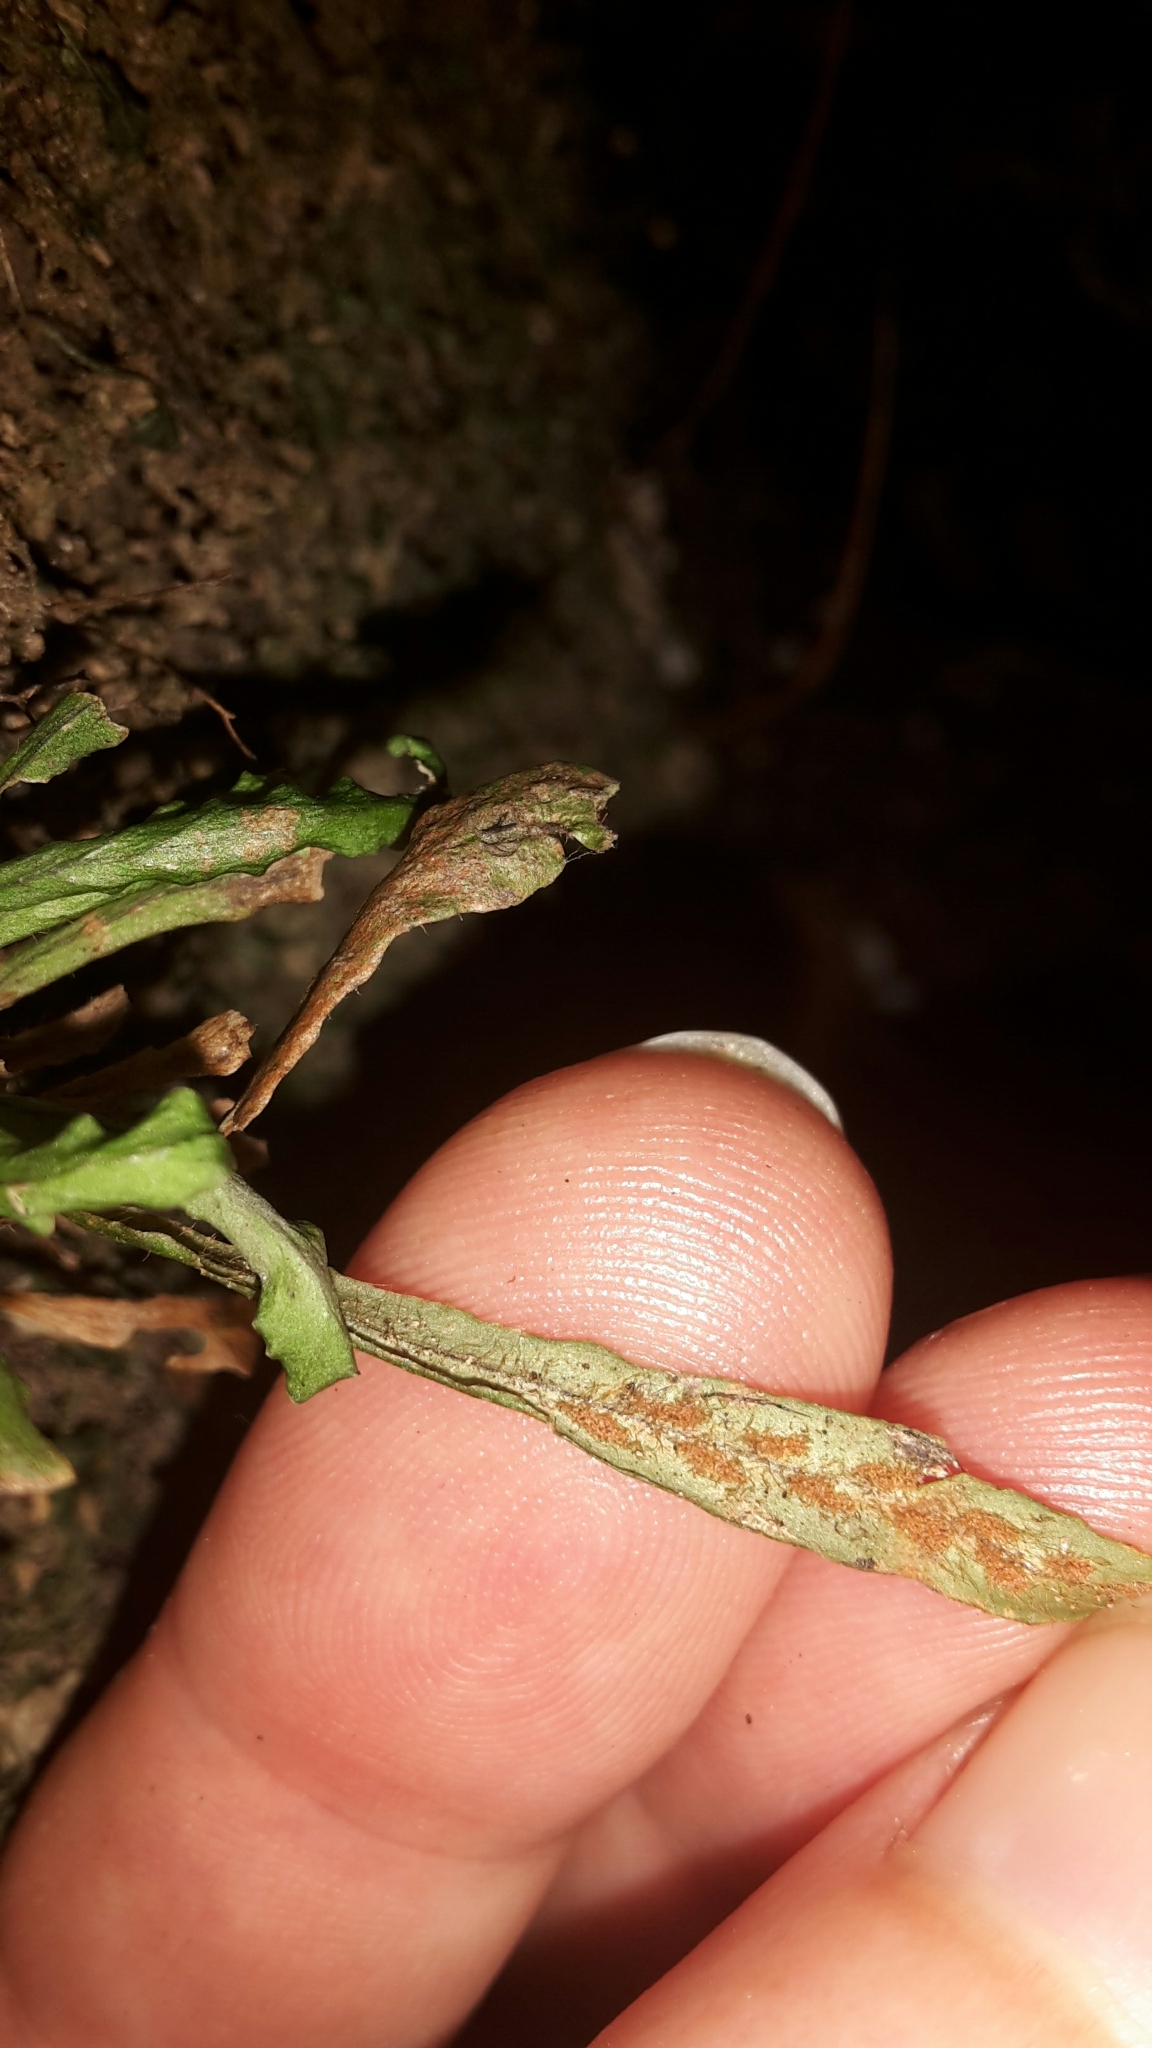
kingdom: Plantae
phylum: Tracheophyta
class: Polypodiopsida
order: Polypodiales
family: Polypodiaceae
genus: Notogrammitis
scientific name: Notogrammitis ciliata
